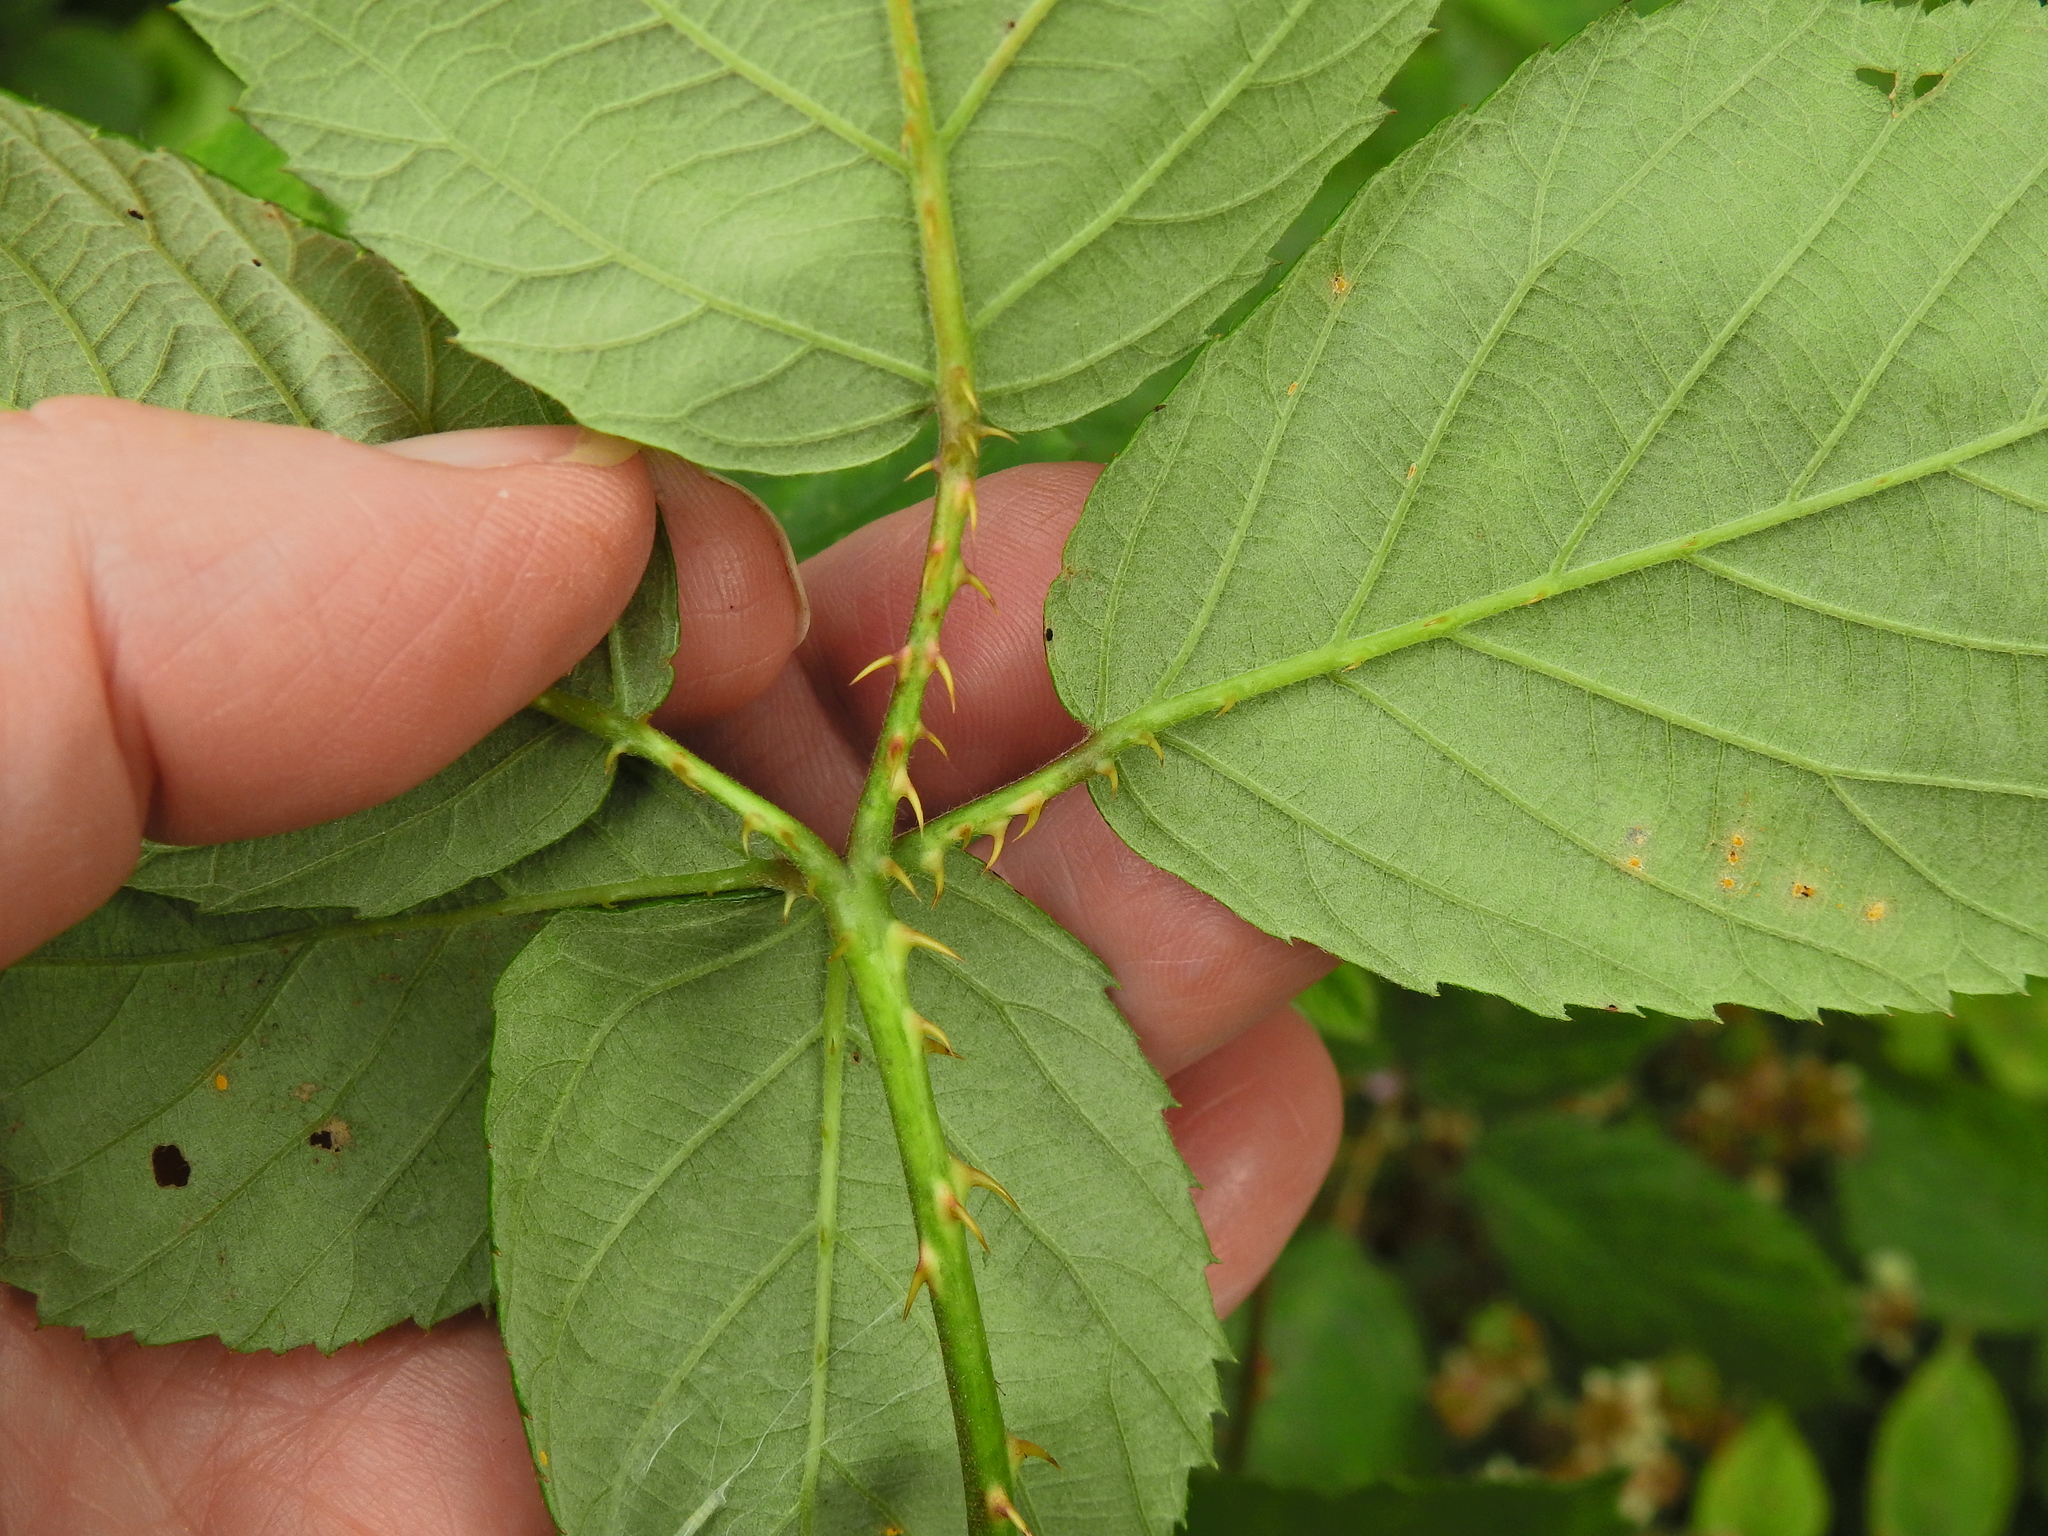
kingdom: Plantae
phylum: Tracheophyta
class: Magnoliopsida
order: Rosales
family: Rosaceae
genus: Rubus
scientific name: Rubus polyanthemus
